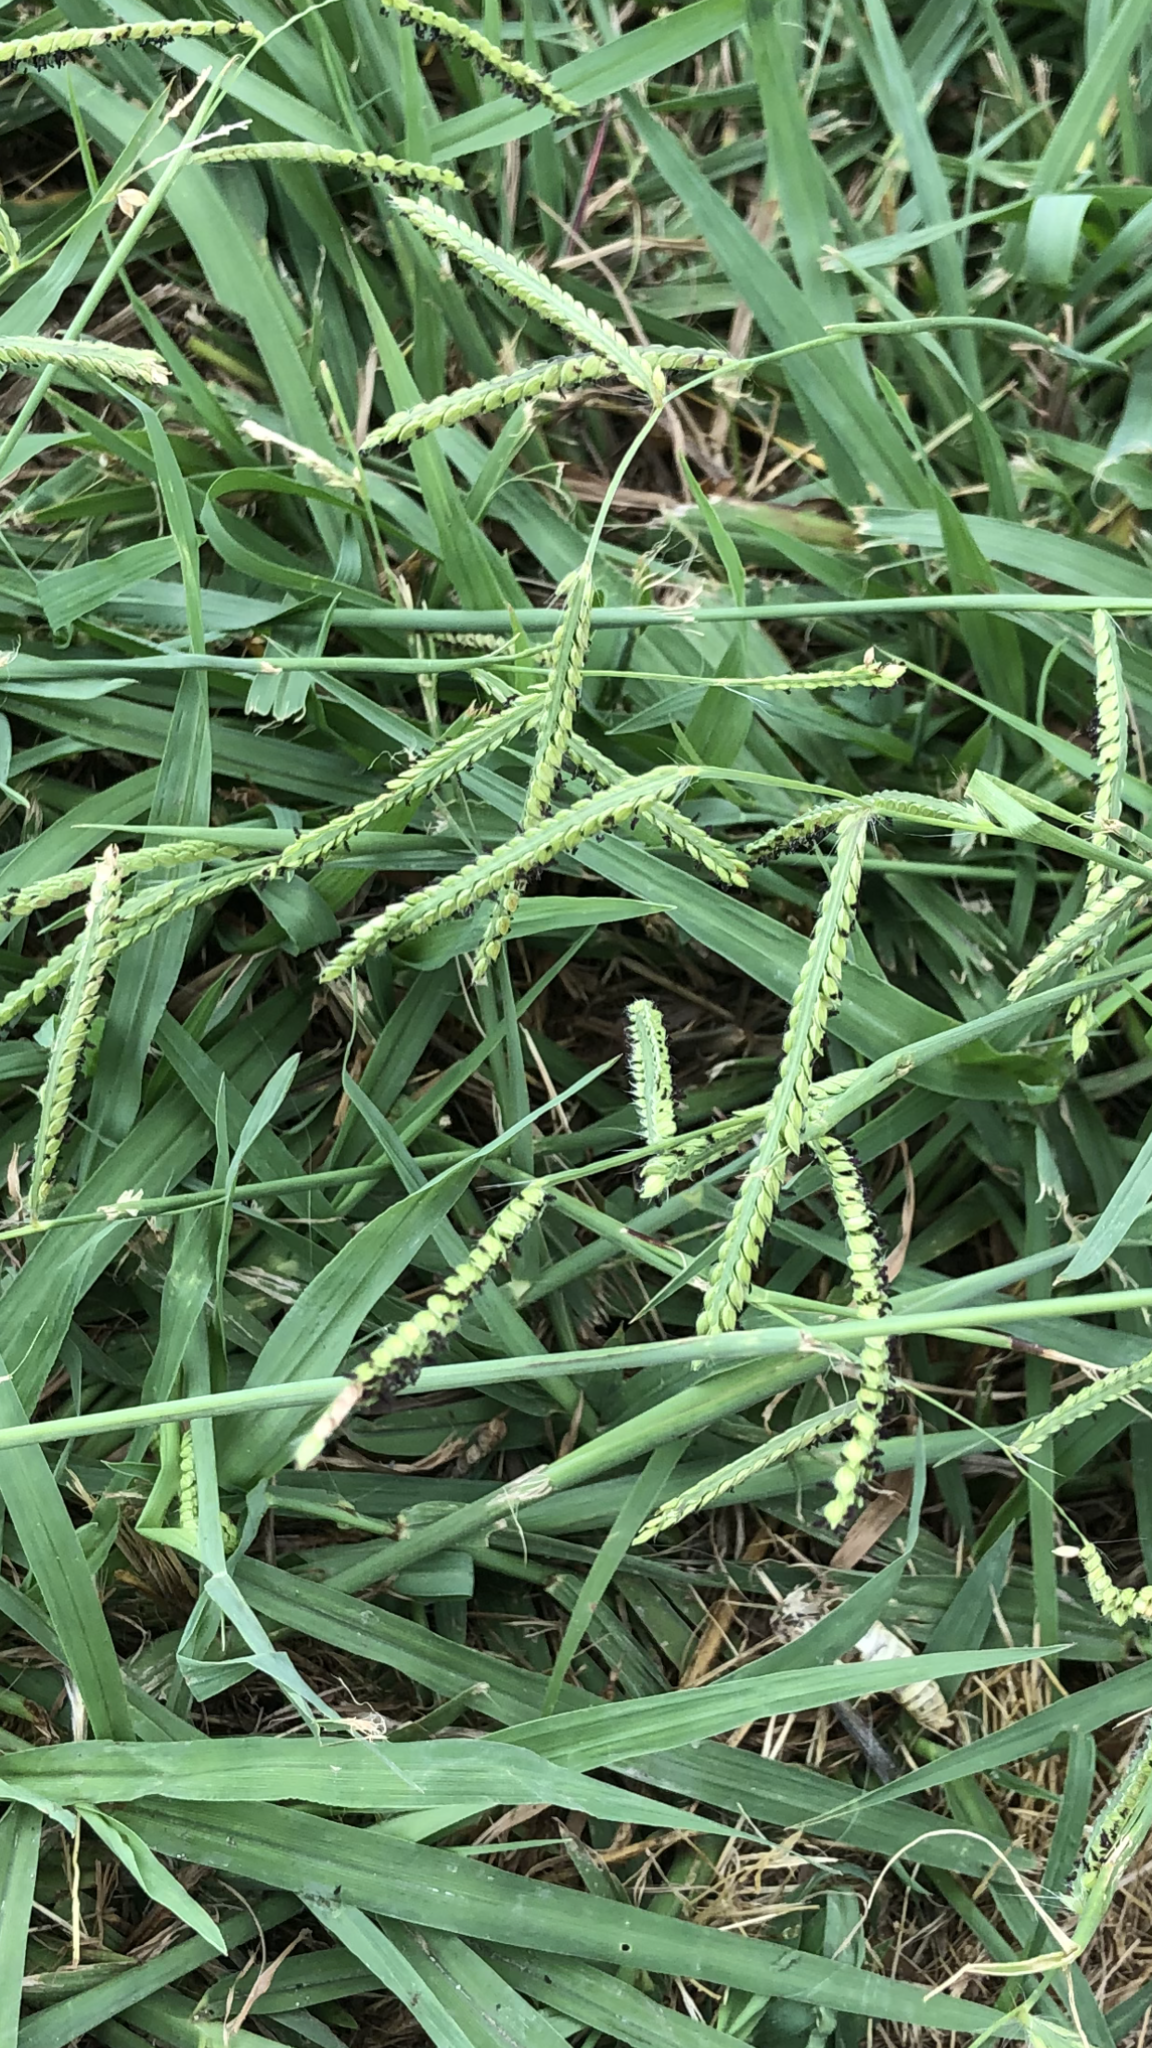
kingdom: Plantae
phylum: Tracheophyta
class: Liliopsida
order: Poales
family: Poaceae
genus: Paspalum
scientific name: Paspalum dilatatum
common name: Dallisgrass
